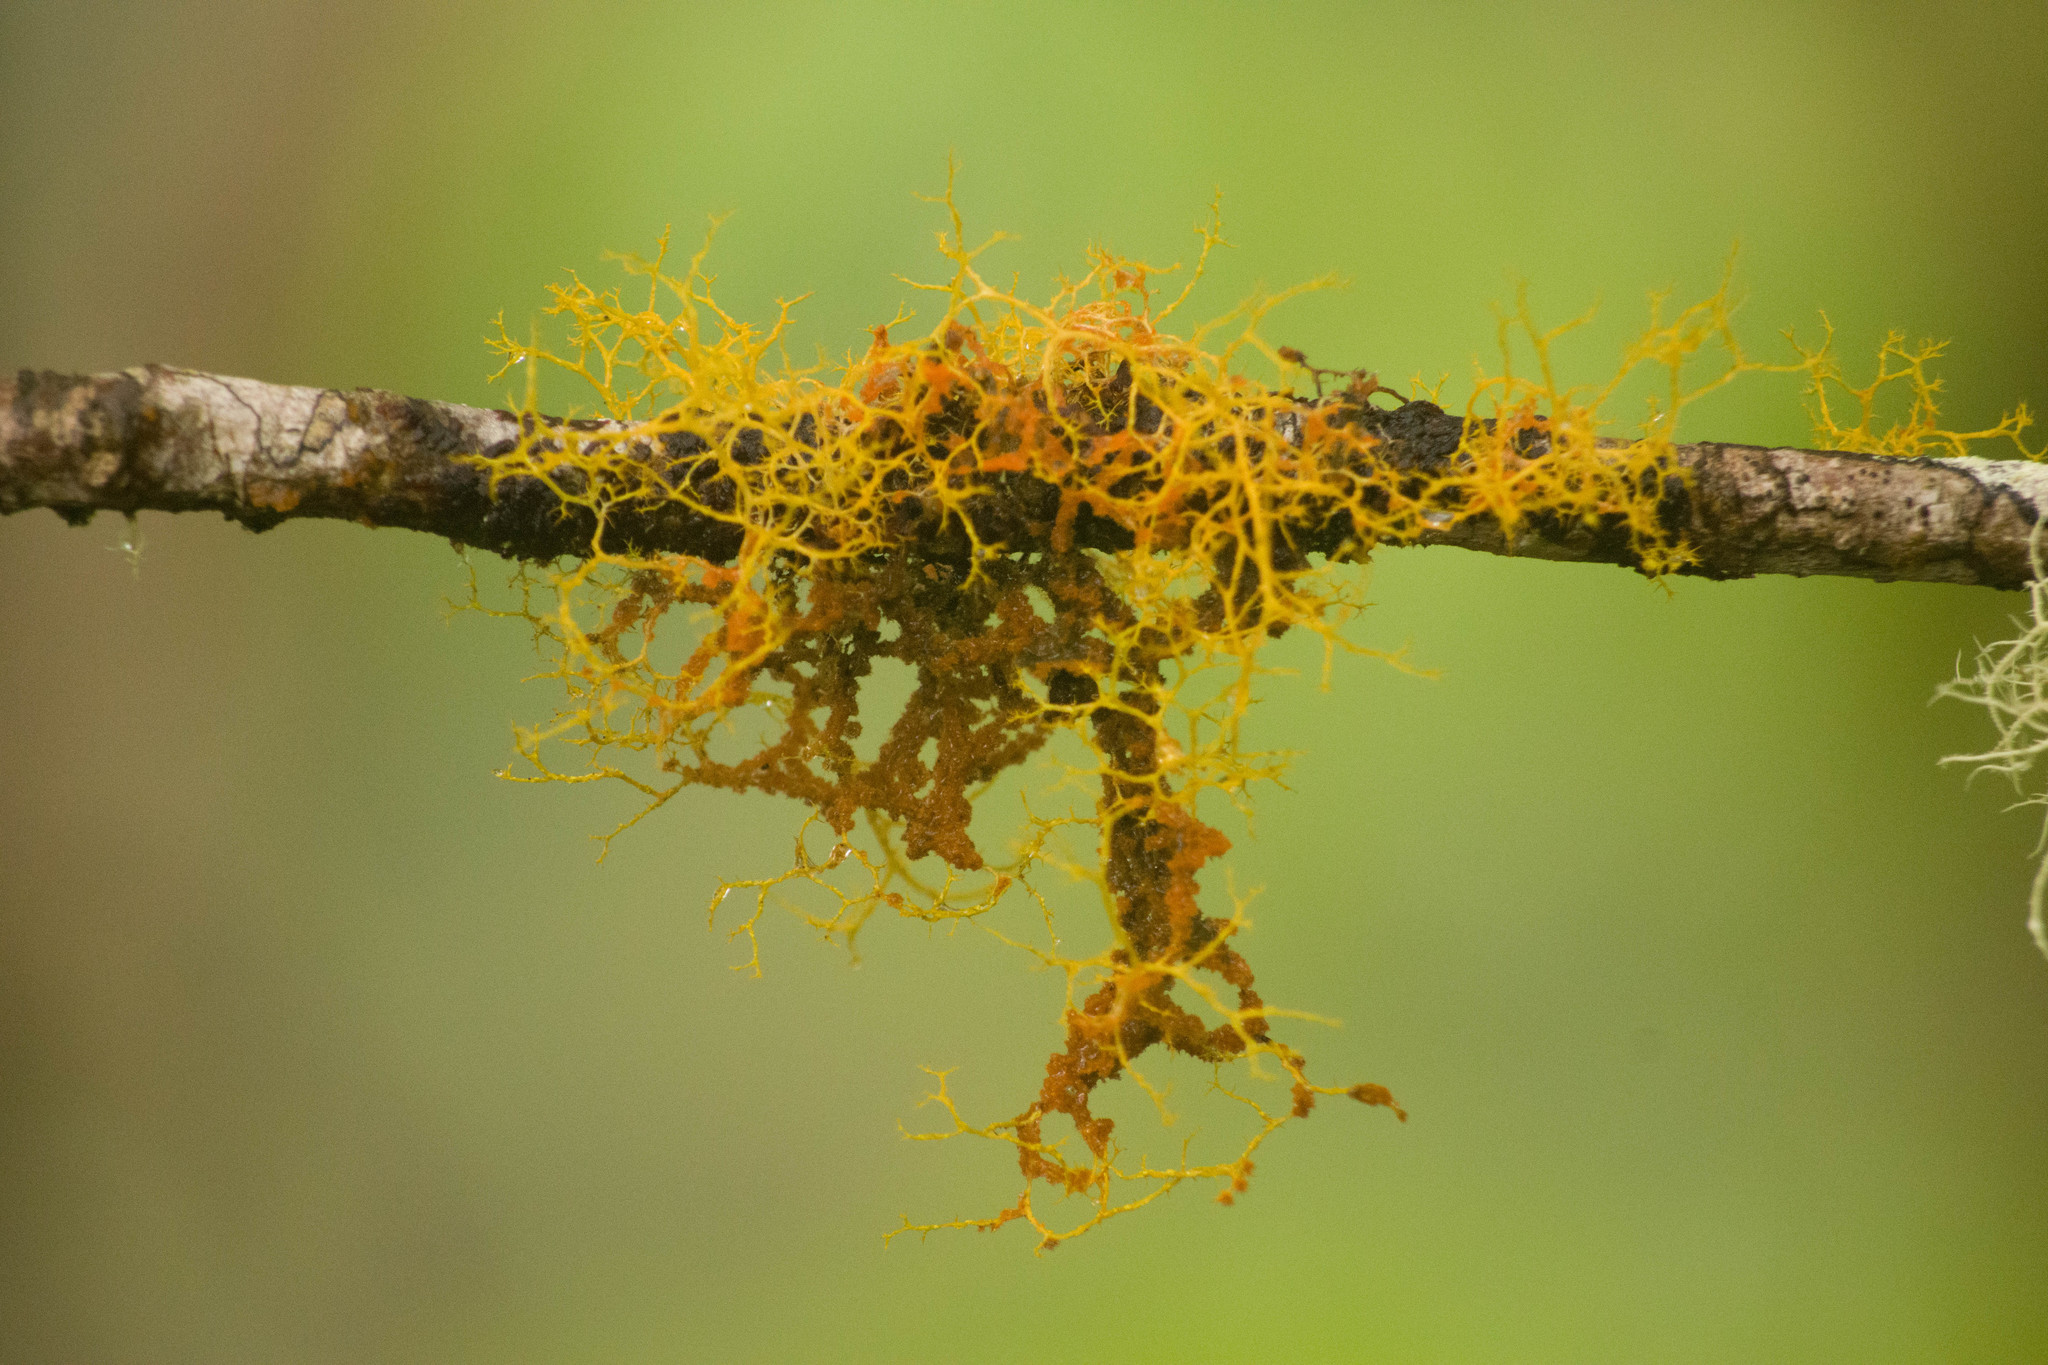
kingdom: Fungi
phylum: Ascomycota
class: Lecanoromycetes
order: Teloschistales
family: Teloschistaceae
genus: Teloschistes
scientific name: Teloschistes flavicans
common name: Golden hair-lichen
